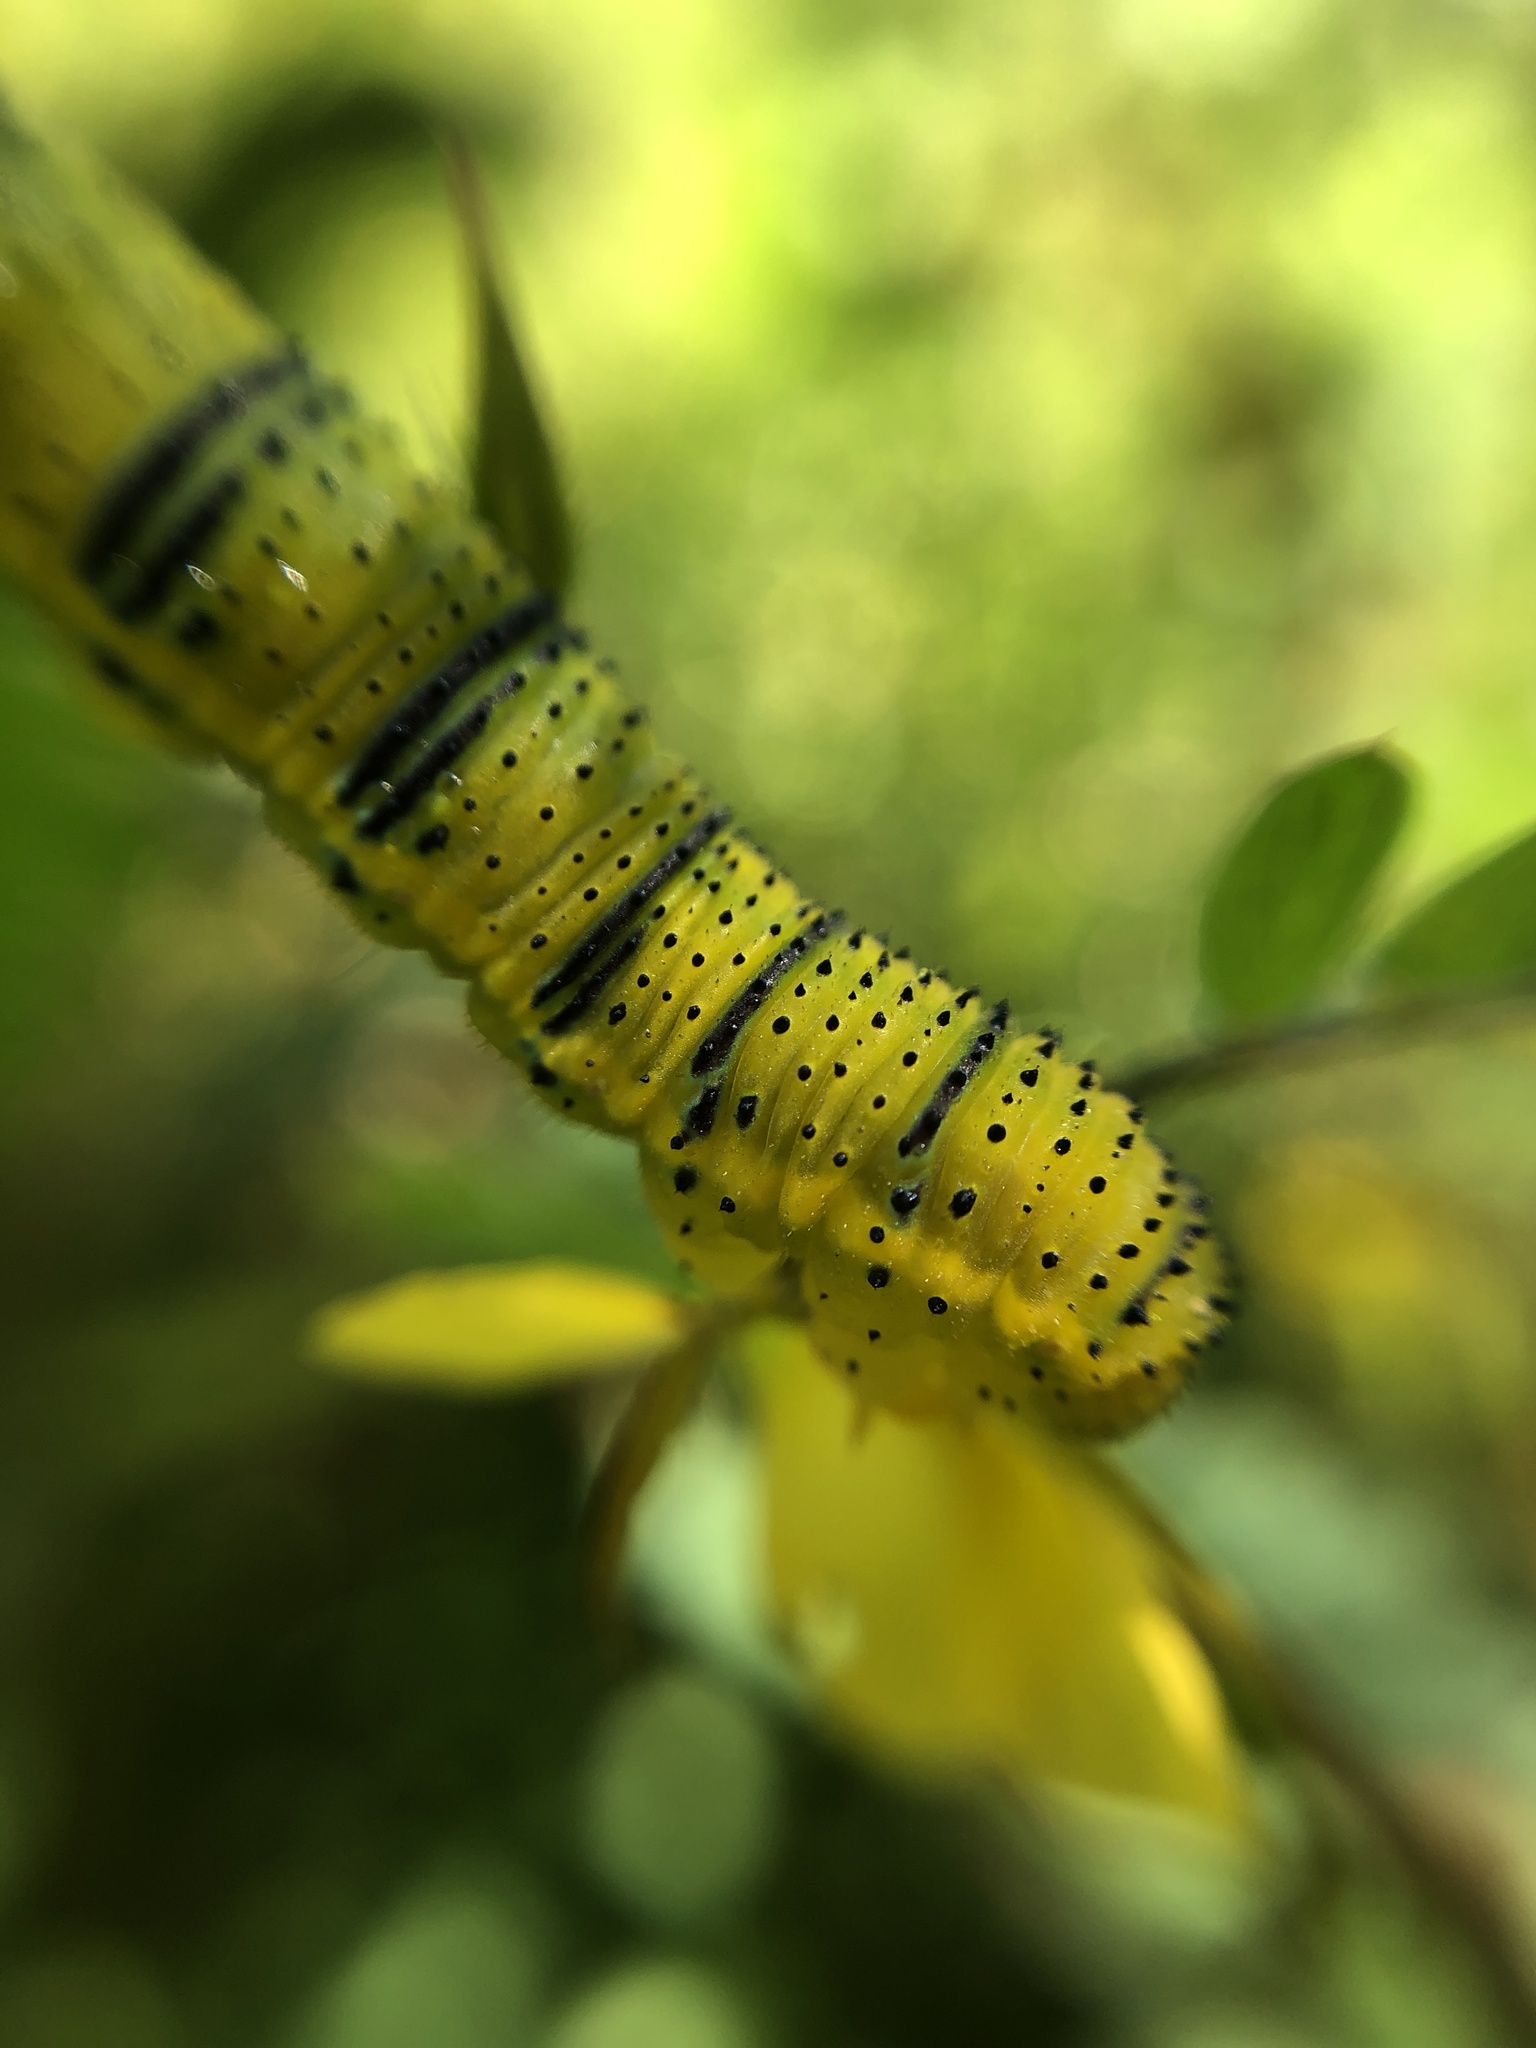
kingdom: Animalia
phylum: Arthropoda
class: Insecta
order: Lepidoptera
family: Pieridae
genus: Phoebis
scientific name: Phoebis sennae
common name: Cloudless sulphur
